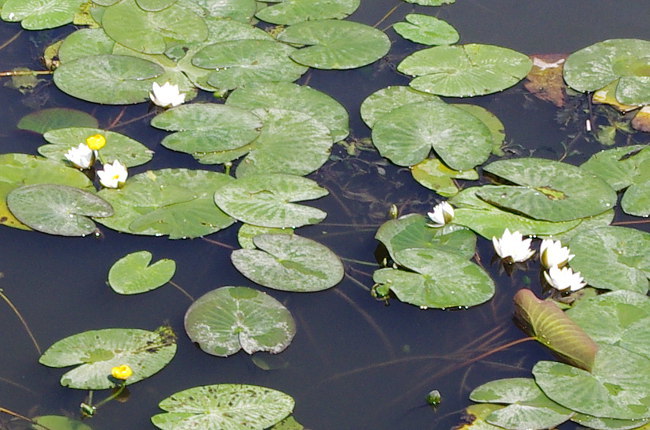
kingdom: Plantae
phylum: Tracheophyta
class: Magnoliopsida
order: Nymphaeales
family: Nymphaeaceae
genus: Nymphaea
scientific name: Nymphaea candida
